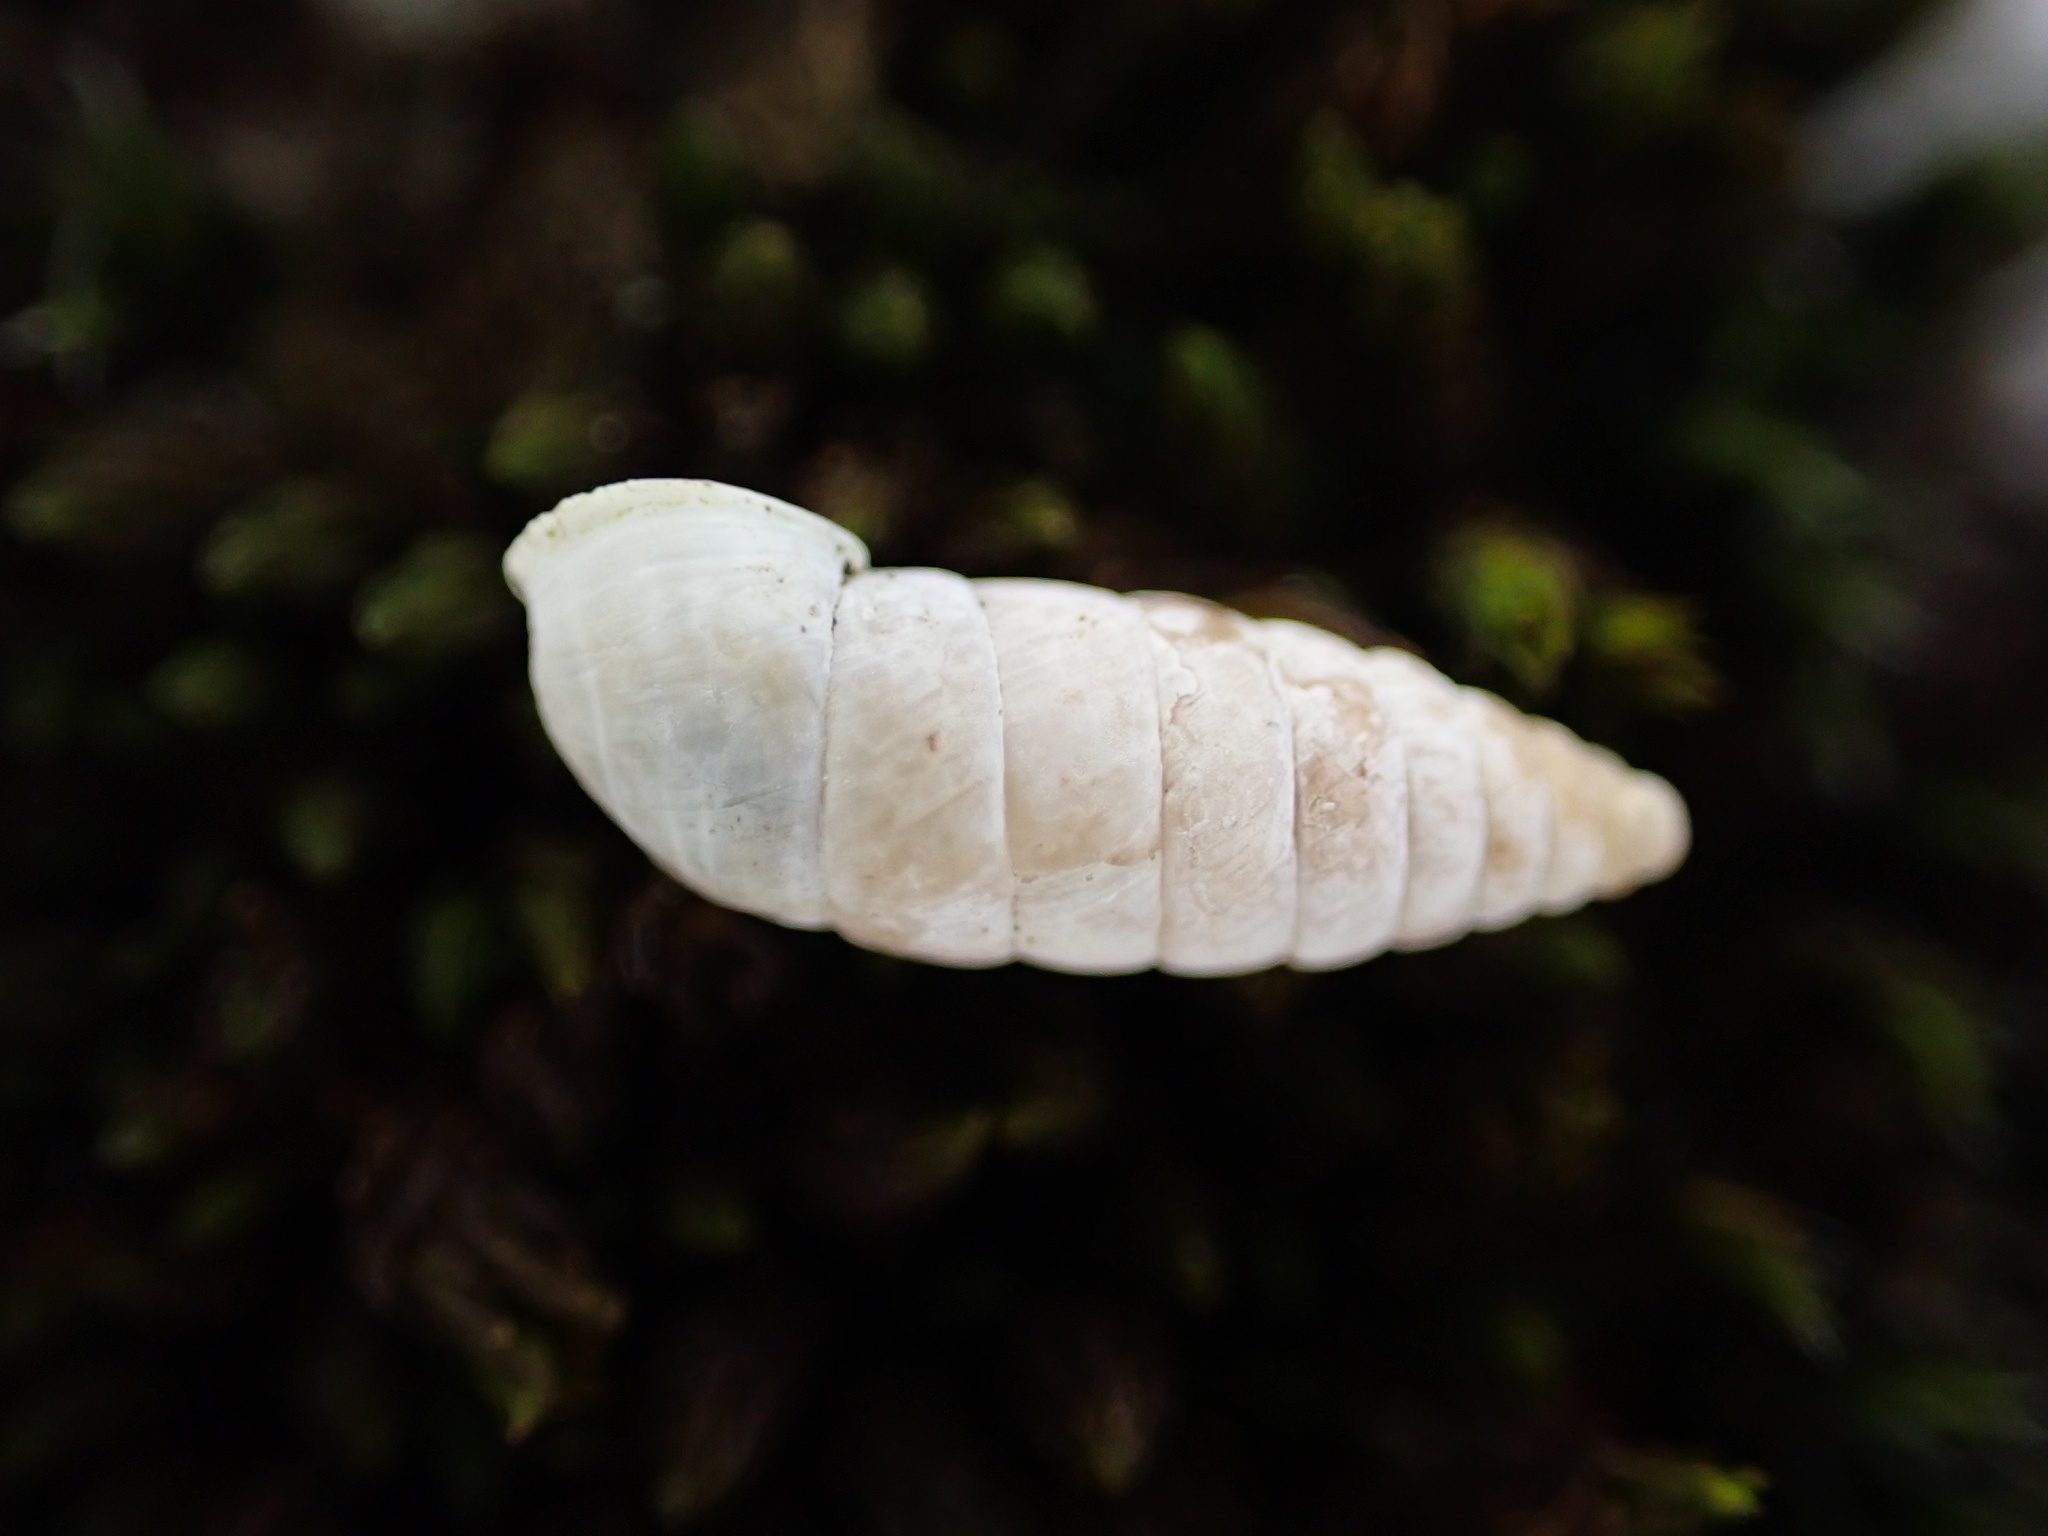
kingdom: Animalia
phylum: Mollusca
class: Gastropoda
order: Stylommatophora
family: Chondrinidae
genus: Granaria
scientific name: Granaria variabilis
